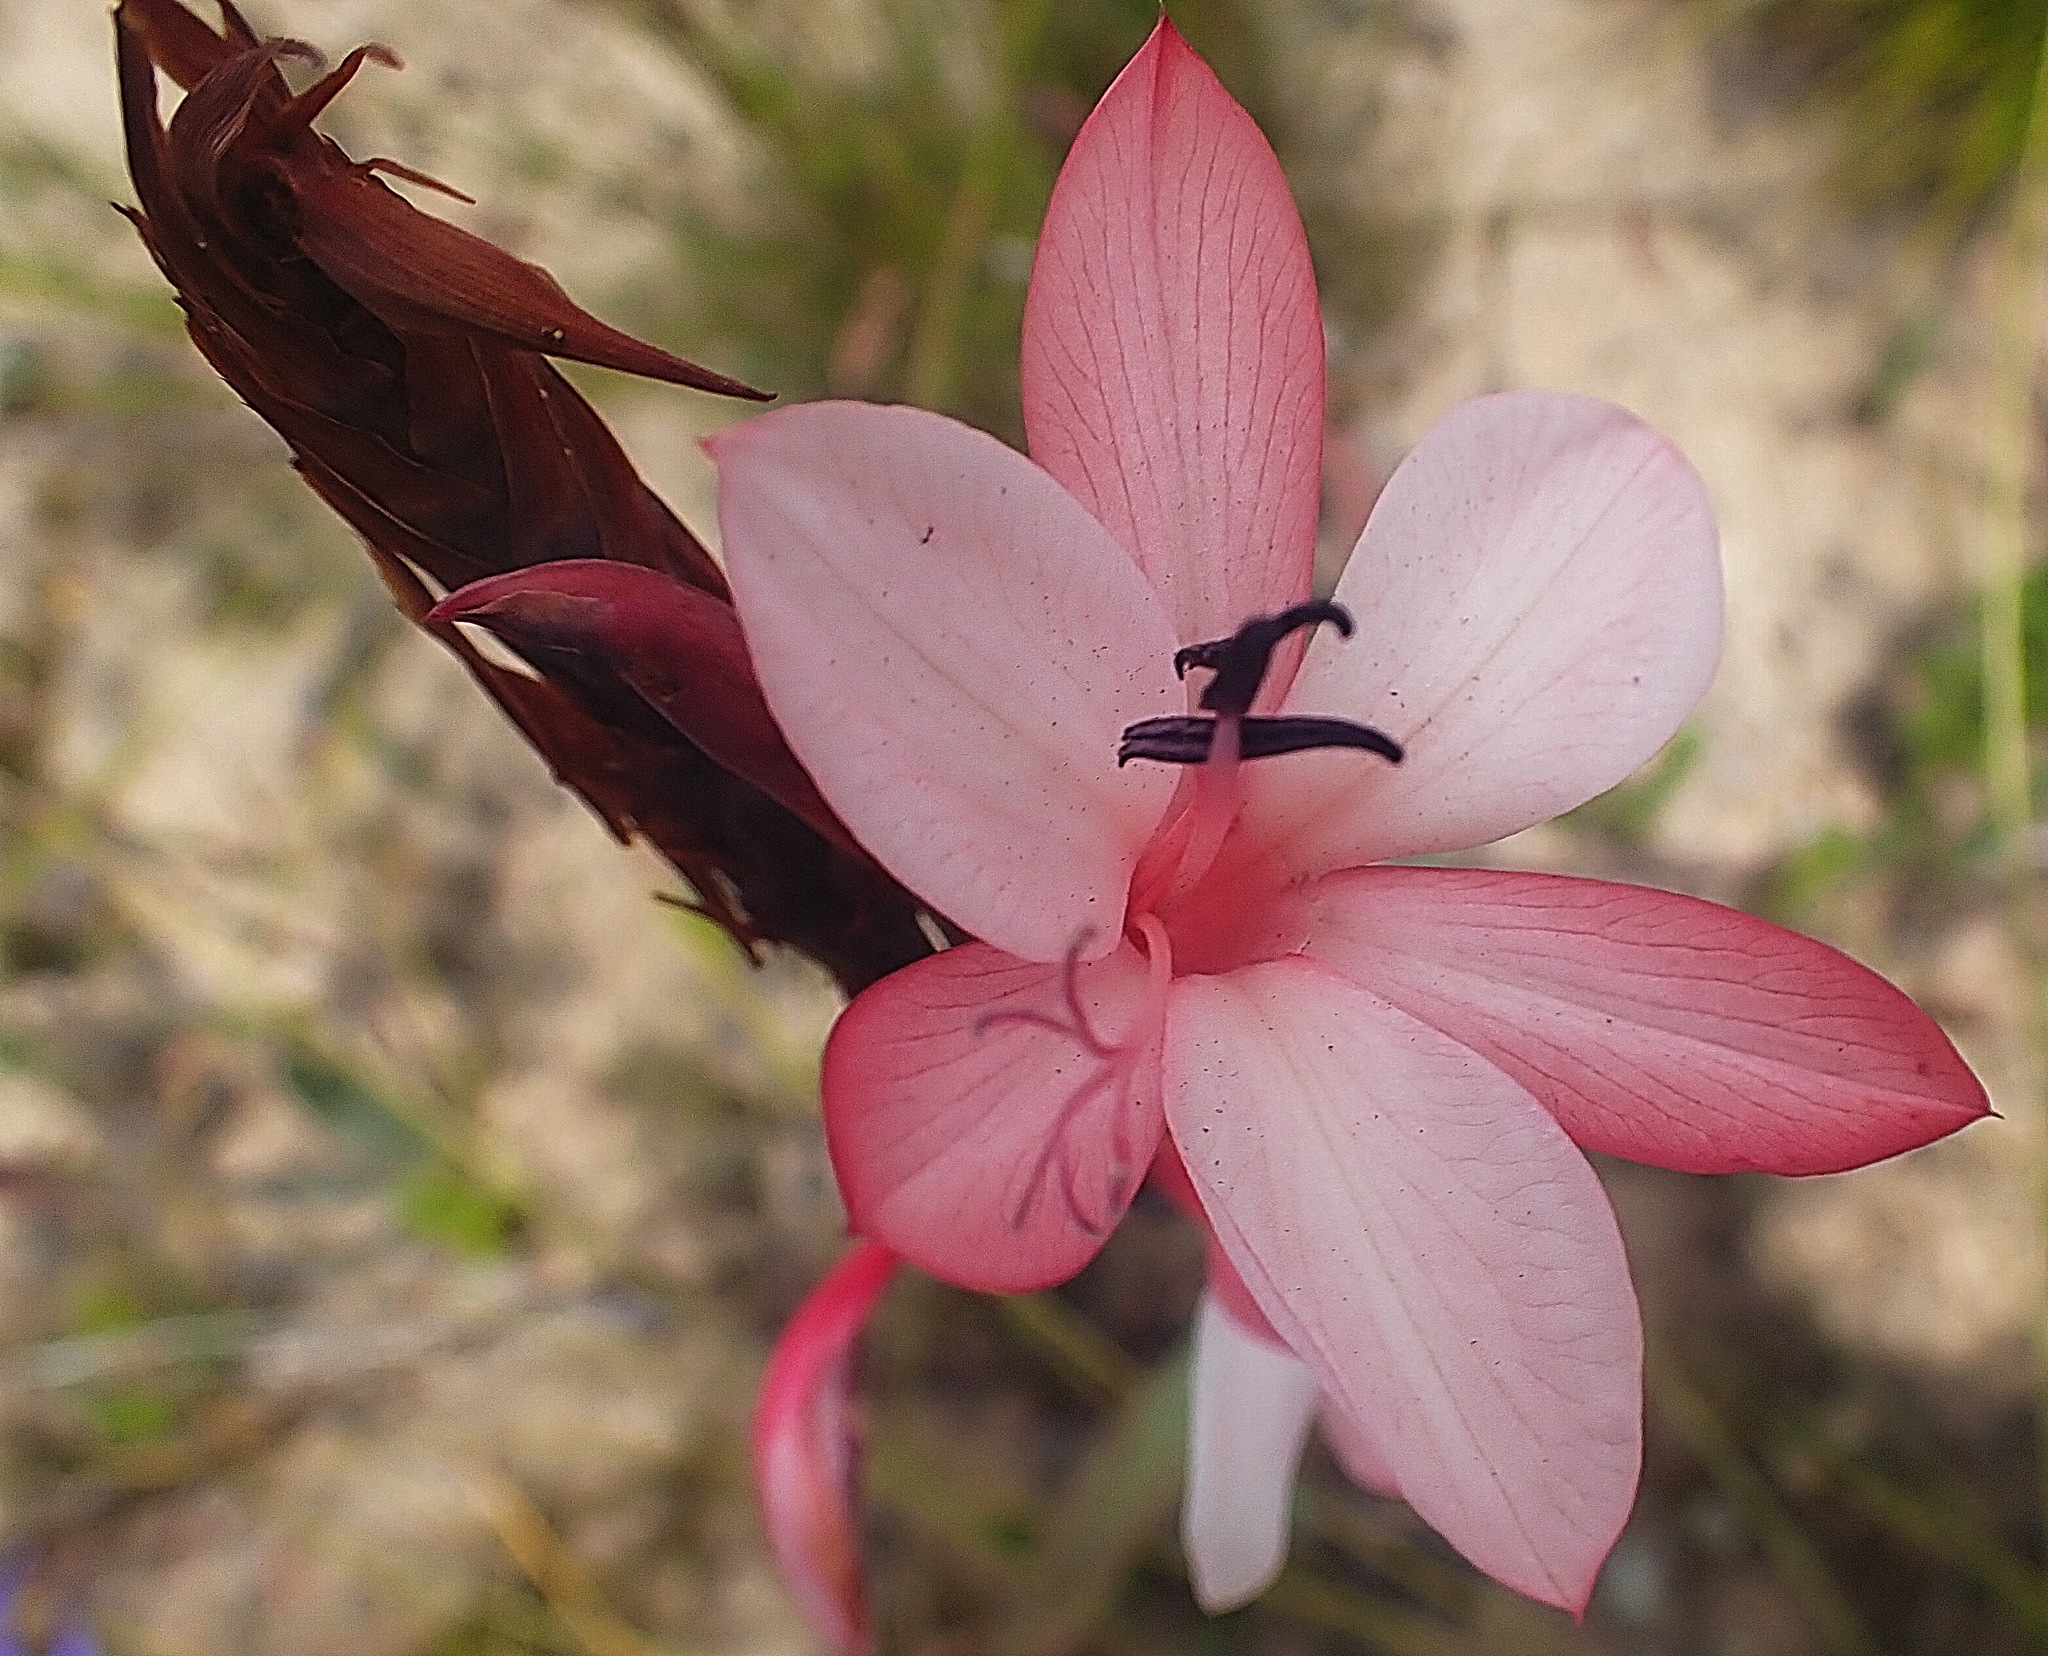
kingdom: Plantae
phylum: Tracheophyta
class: Liliopsida
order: Asparagales
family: Iridaceae
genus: Watsonia
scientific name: Watsonia fourcadei
